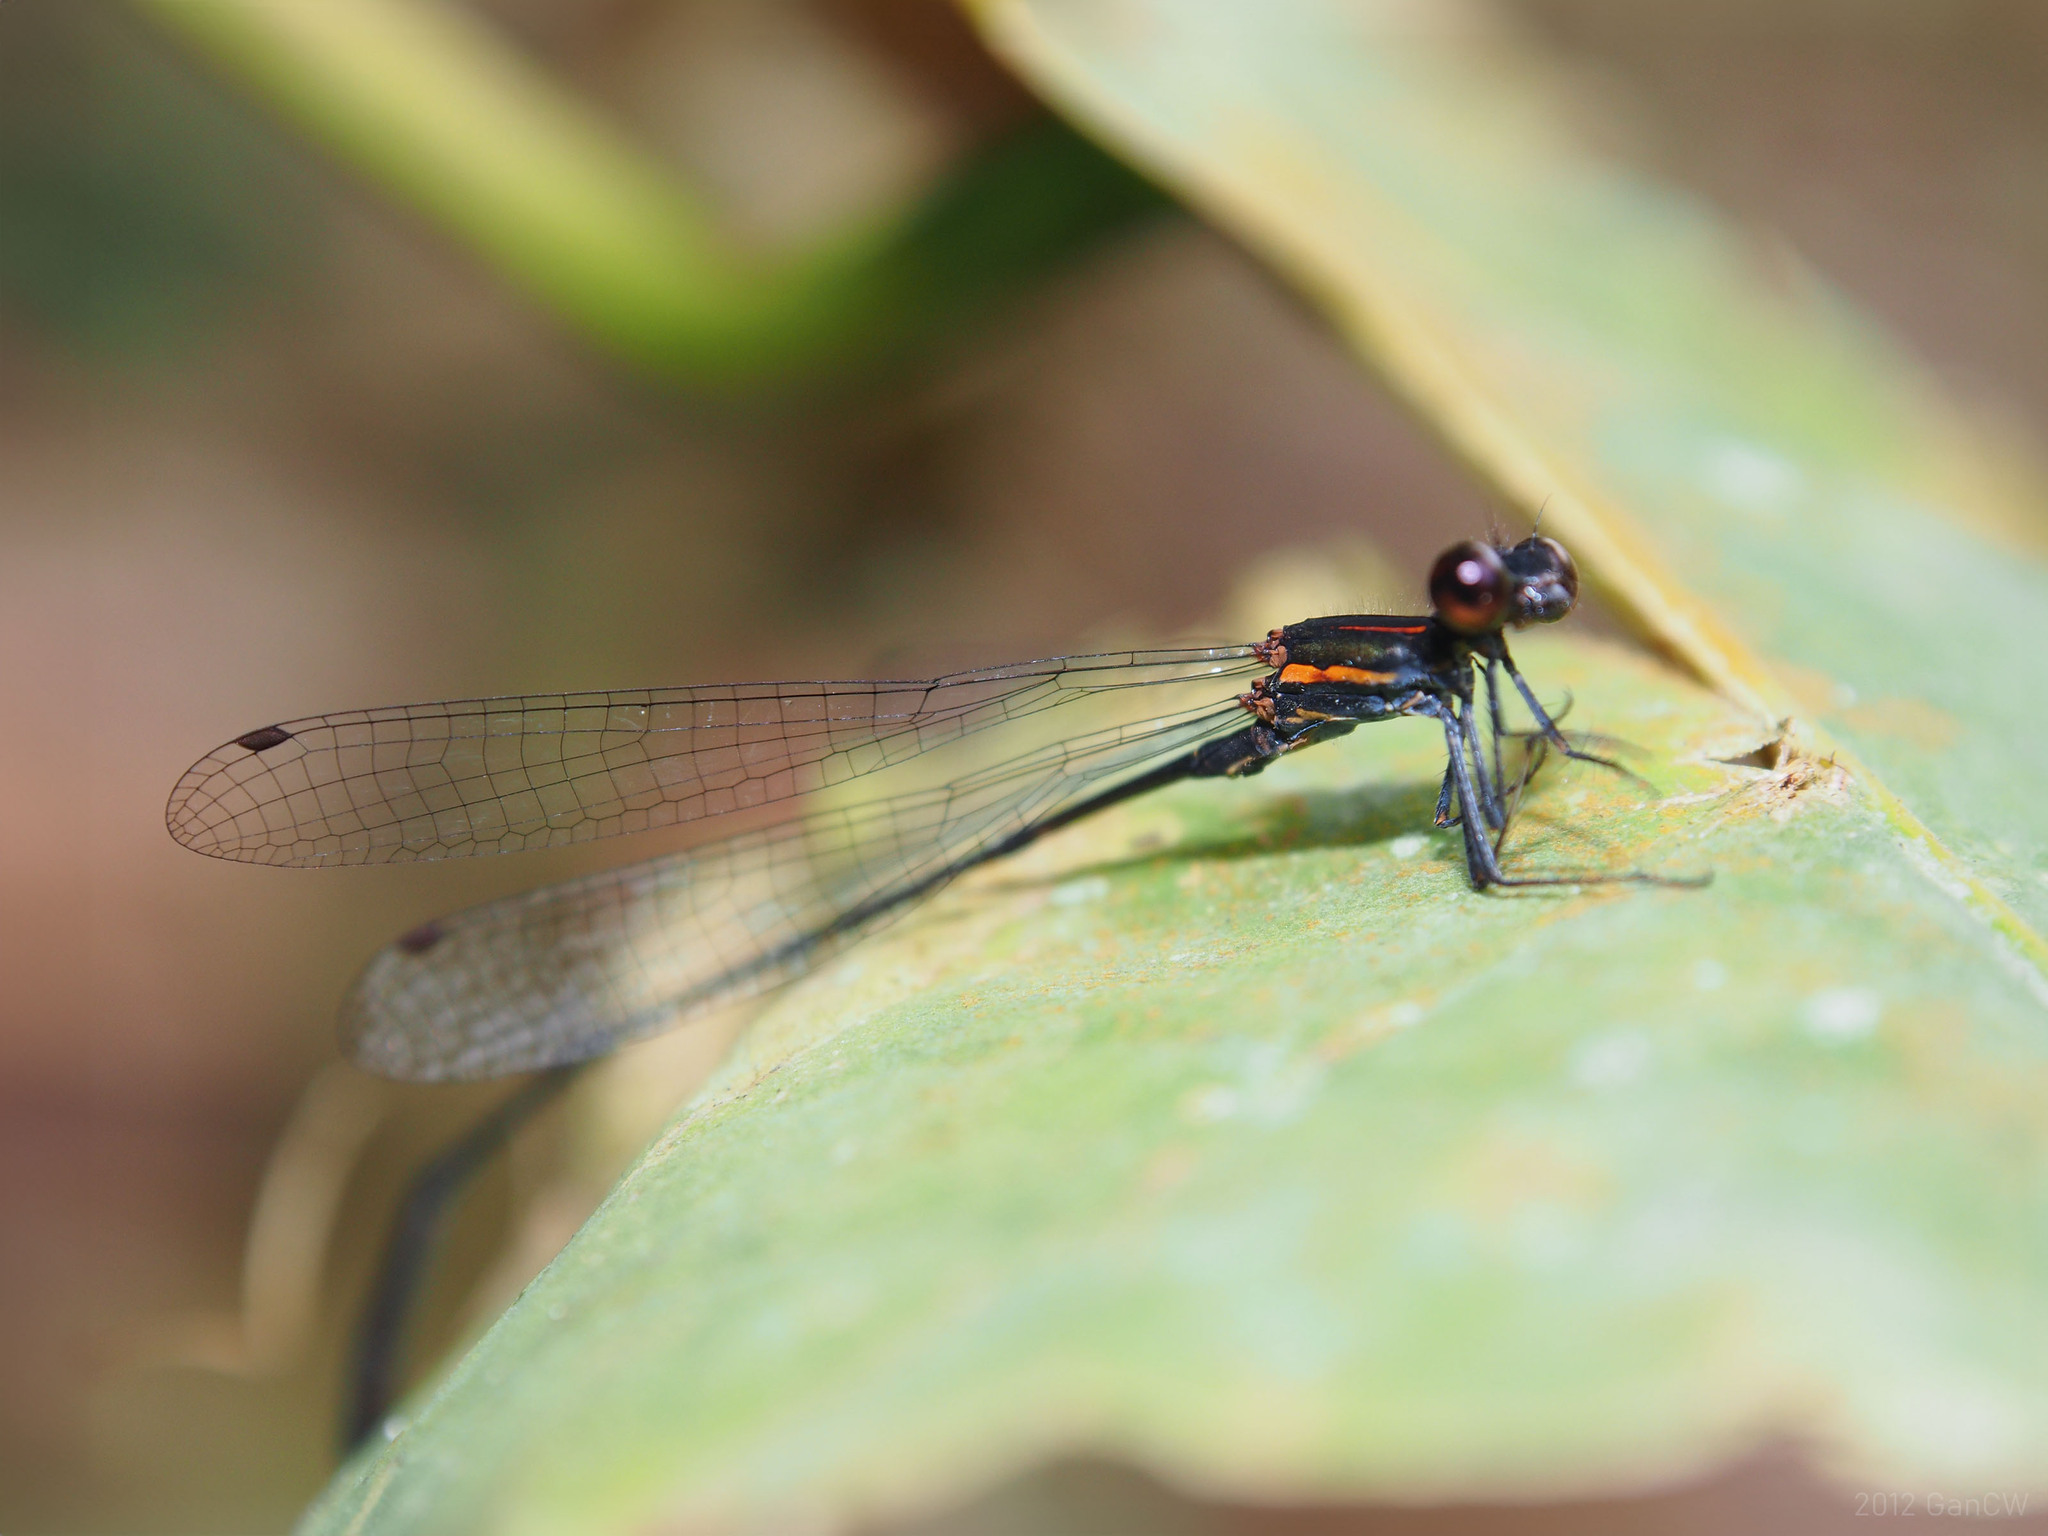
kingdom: Animalia
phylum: Arthropoda
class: Insecta
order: Odonata
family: Platycnemididae
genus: Prodasineura
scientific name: Prodasineura verticalis
